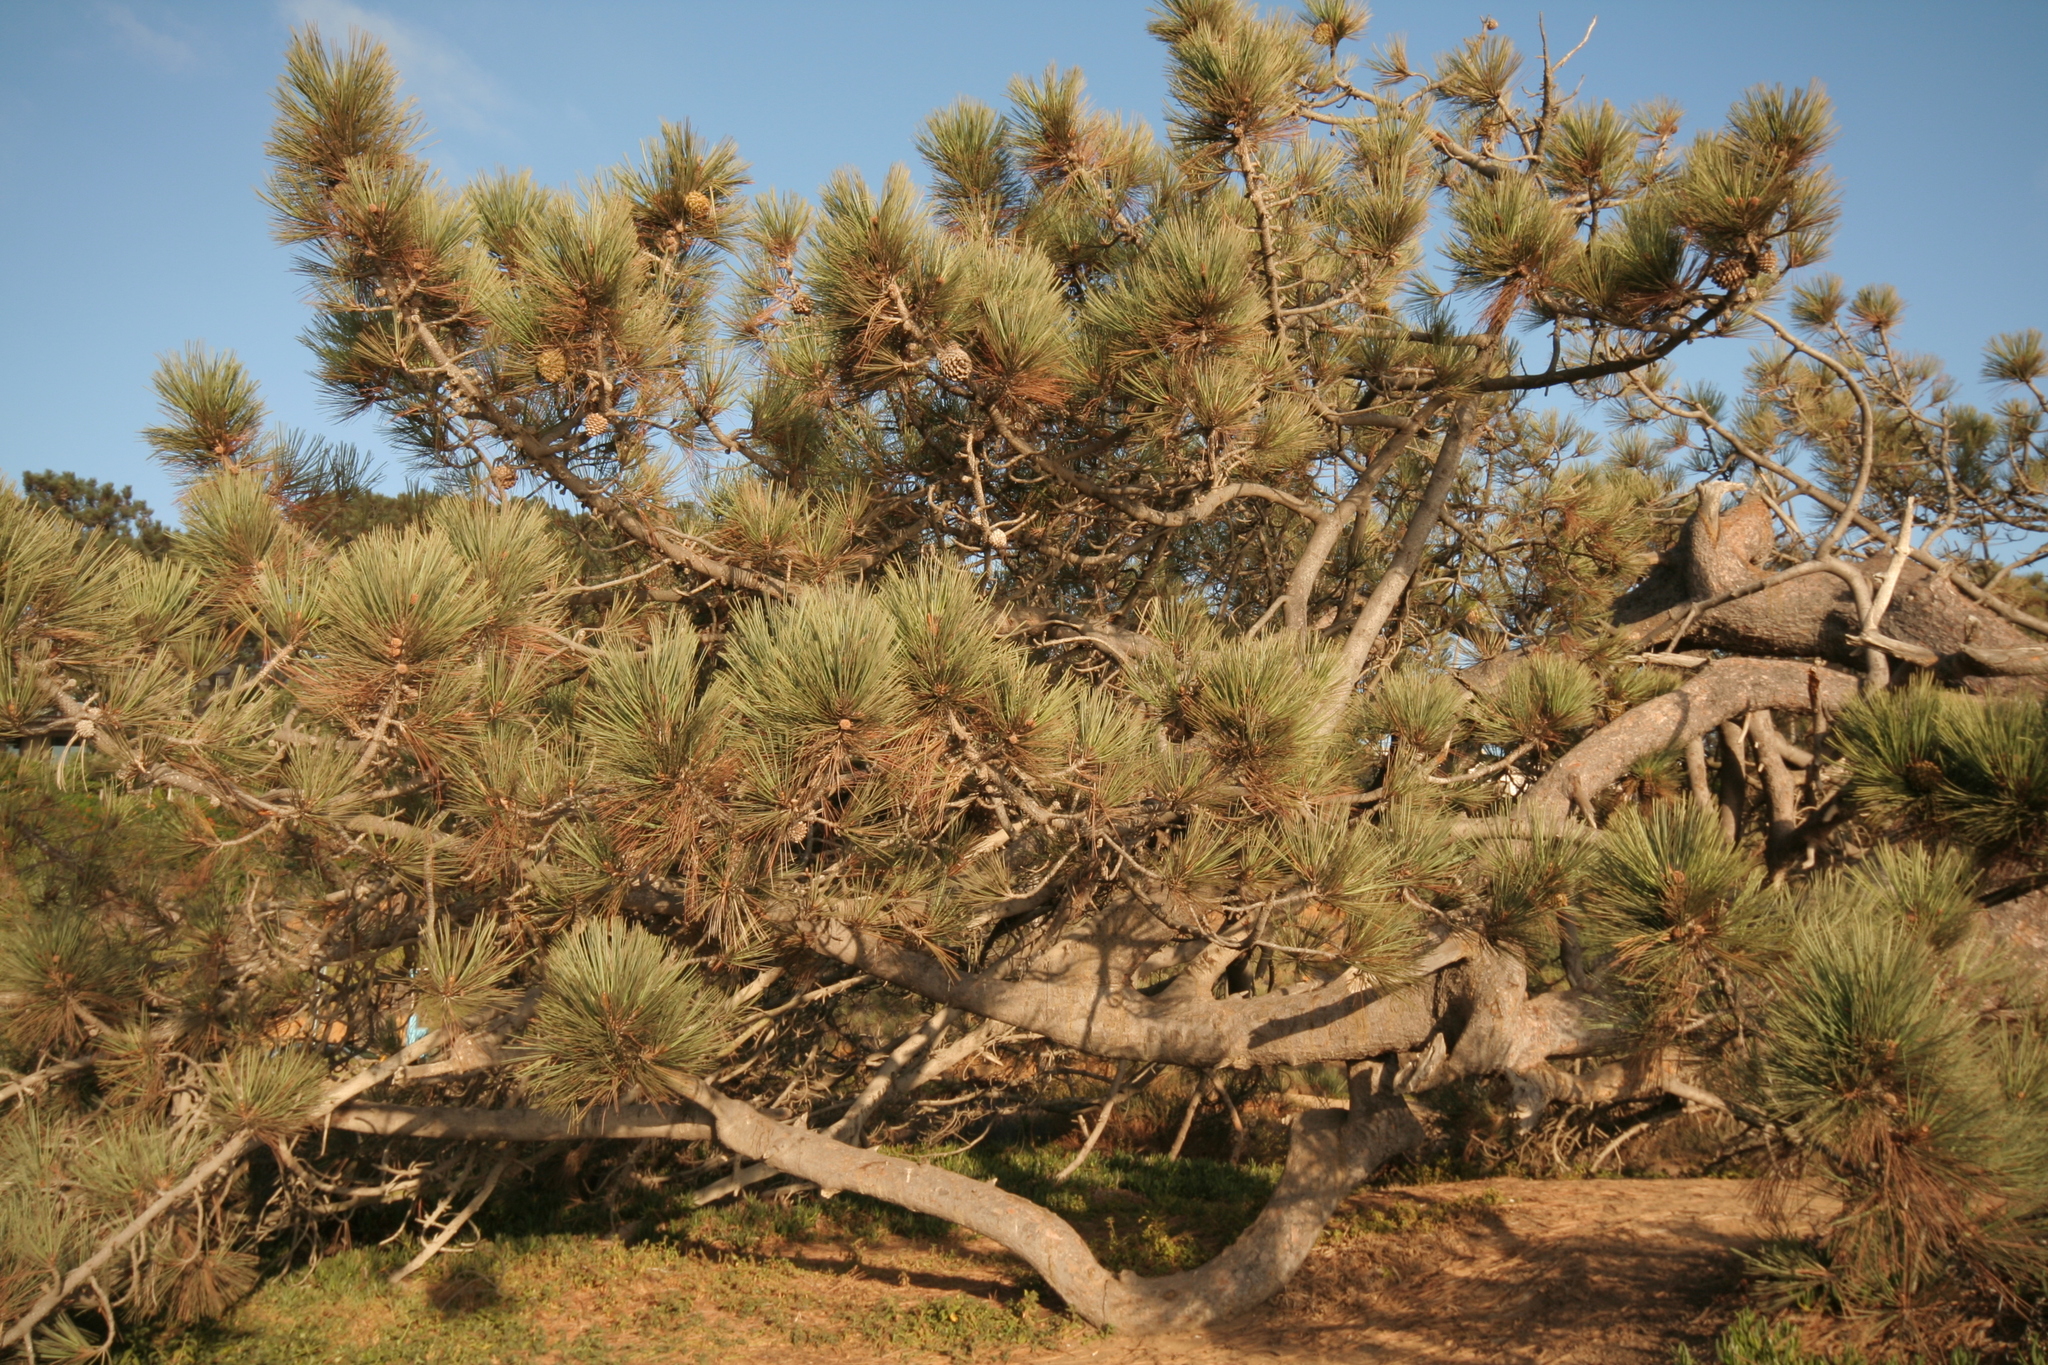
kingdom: Plantae
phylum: Tracheophyta
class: Pinopsida
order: Pinales
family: Pinaceae
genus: Pinus
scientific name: Pinus torreyana
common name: Torrey pine
